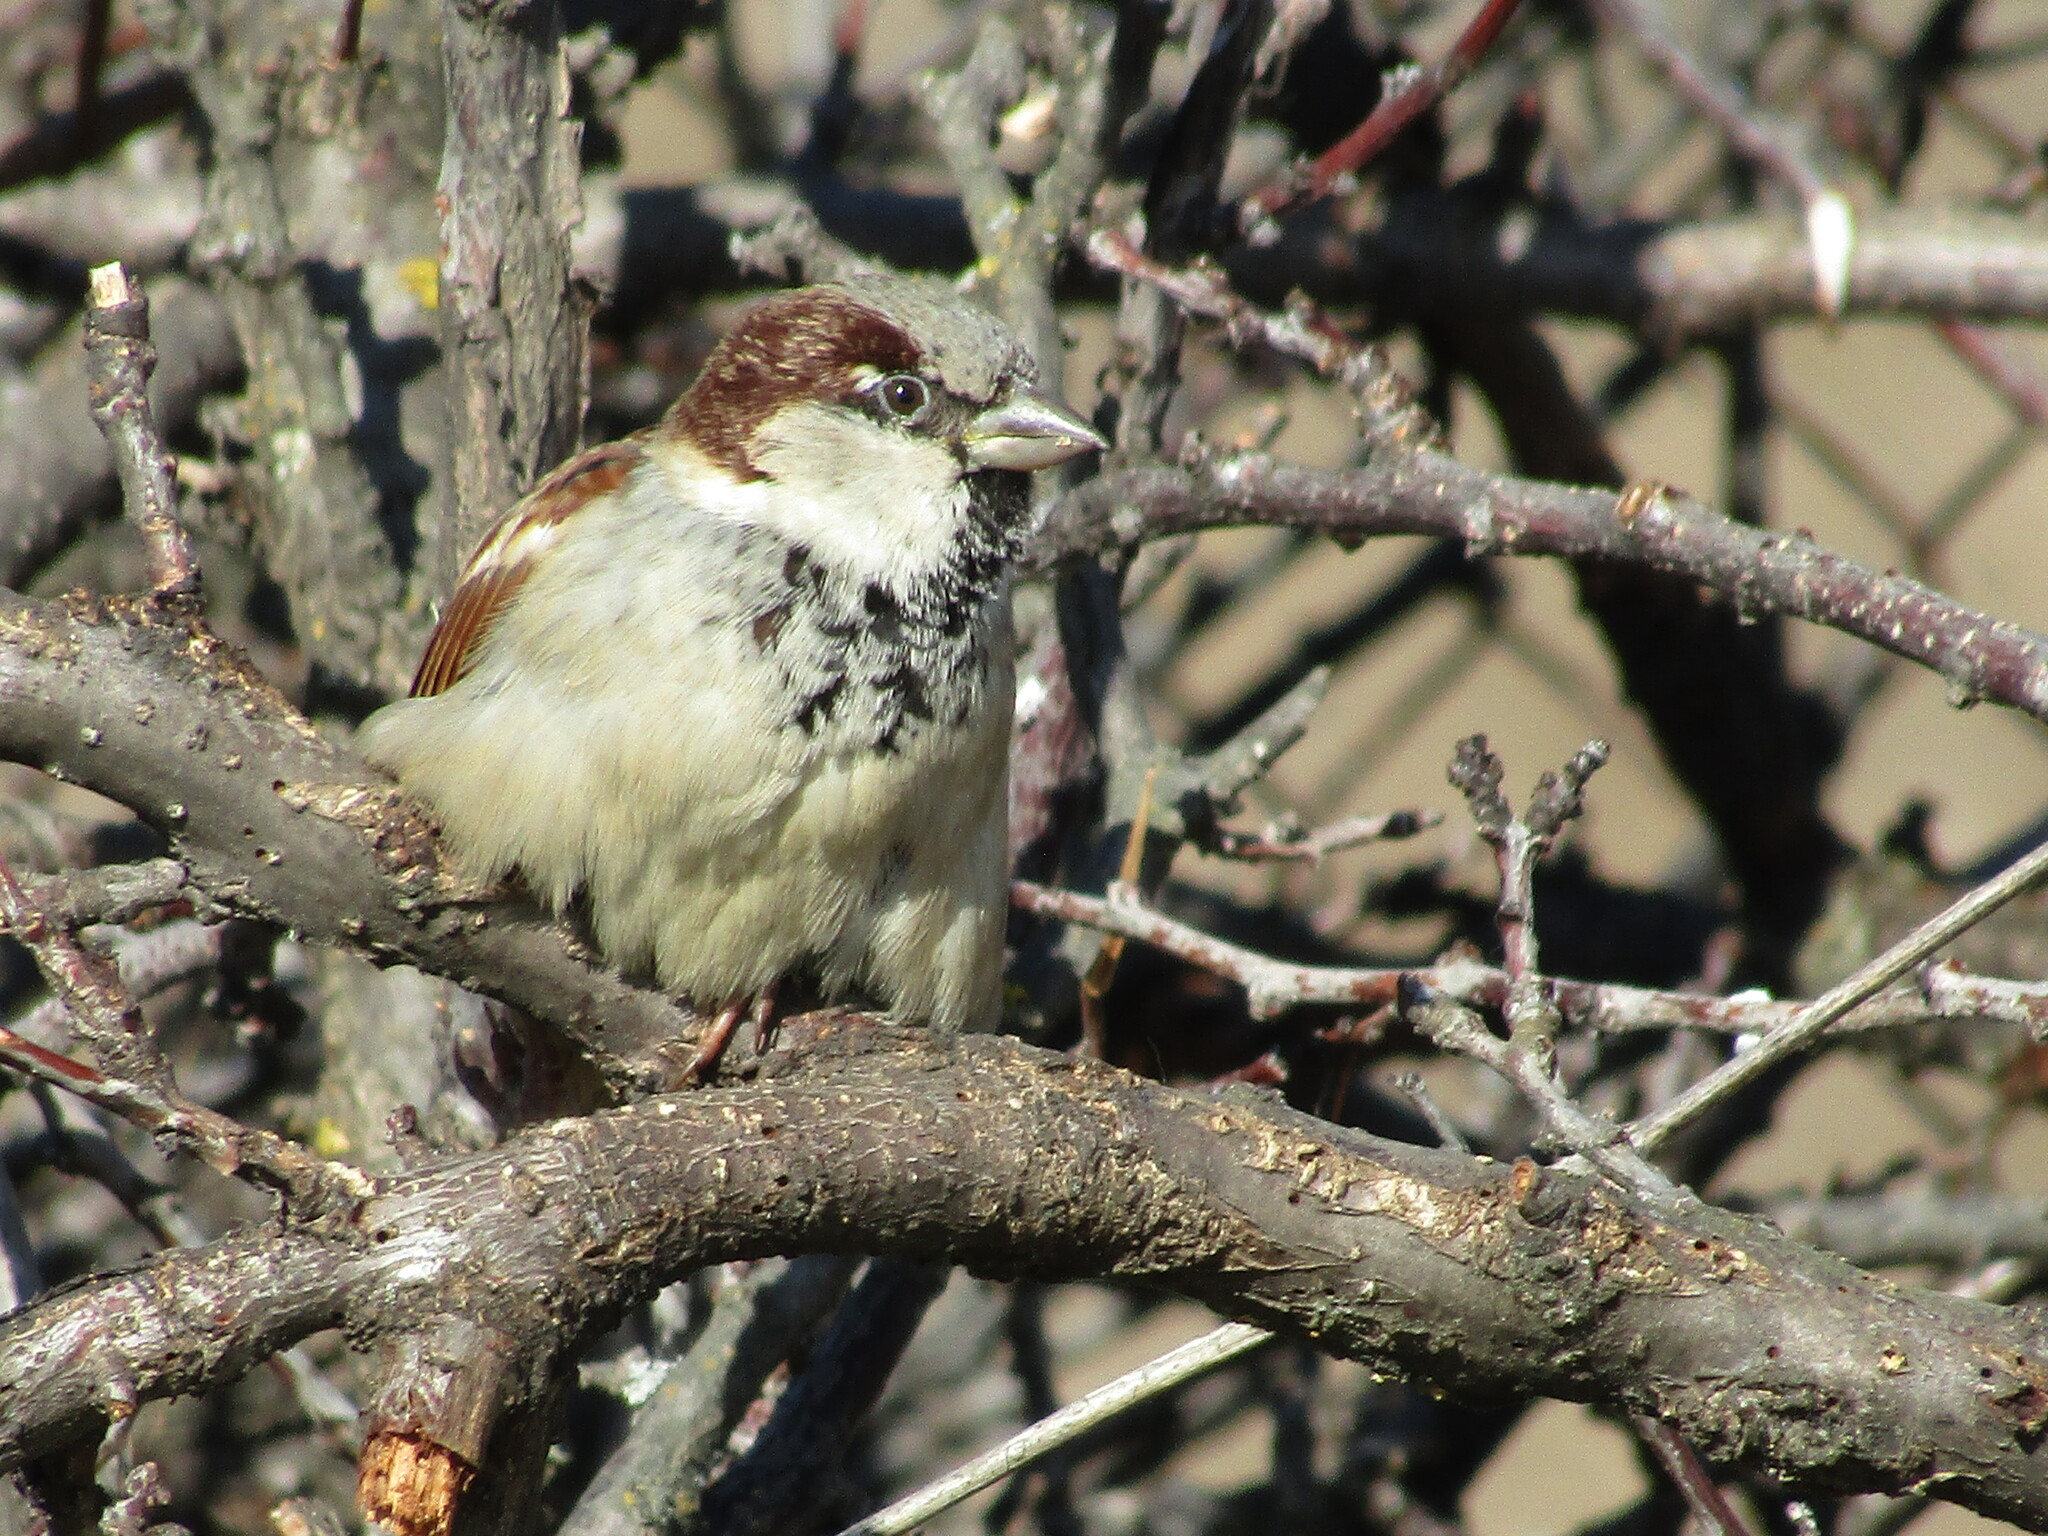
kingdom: Animalia
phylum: Chordata
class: Aves
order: Passeriformes
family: Passeridae
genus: Passer
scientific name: Passer domesticus
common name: House sparrow
